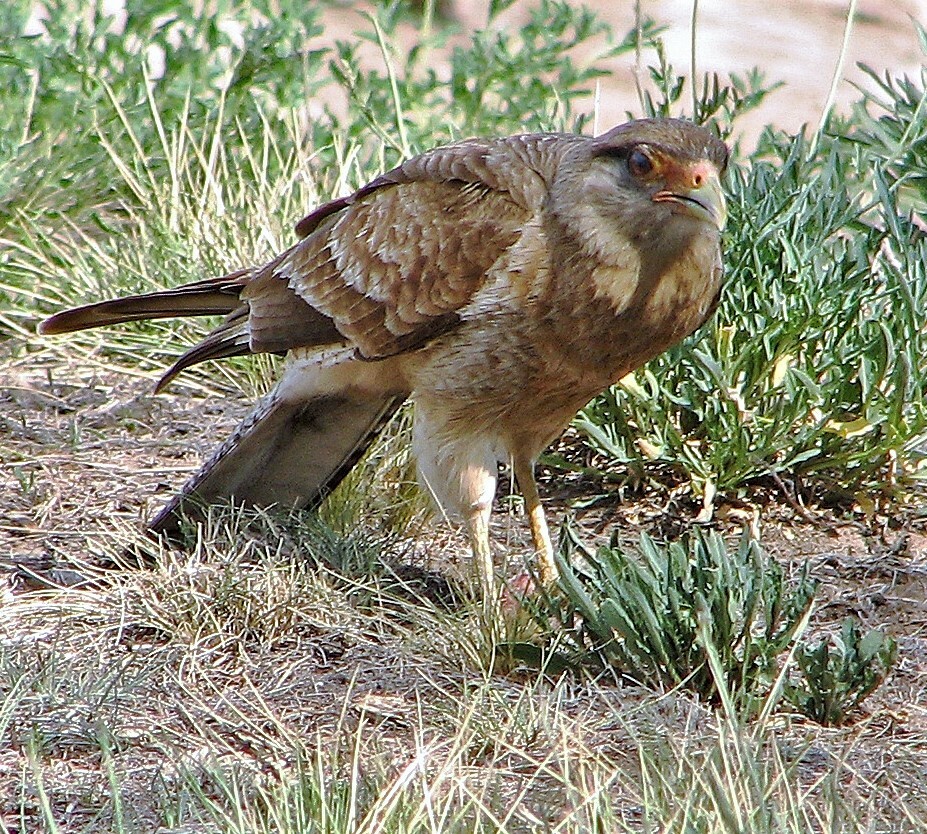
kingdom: Animalia
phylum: Chordata
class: Aves
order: Falconiformes
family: Falconidae
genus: Daptrius
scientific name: Daptrius
